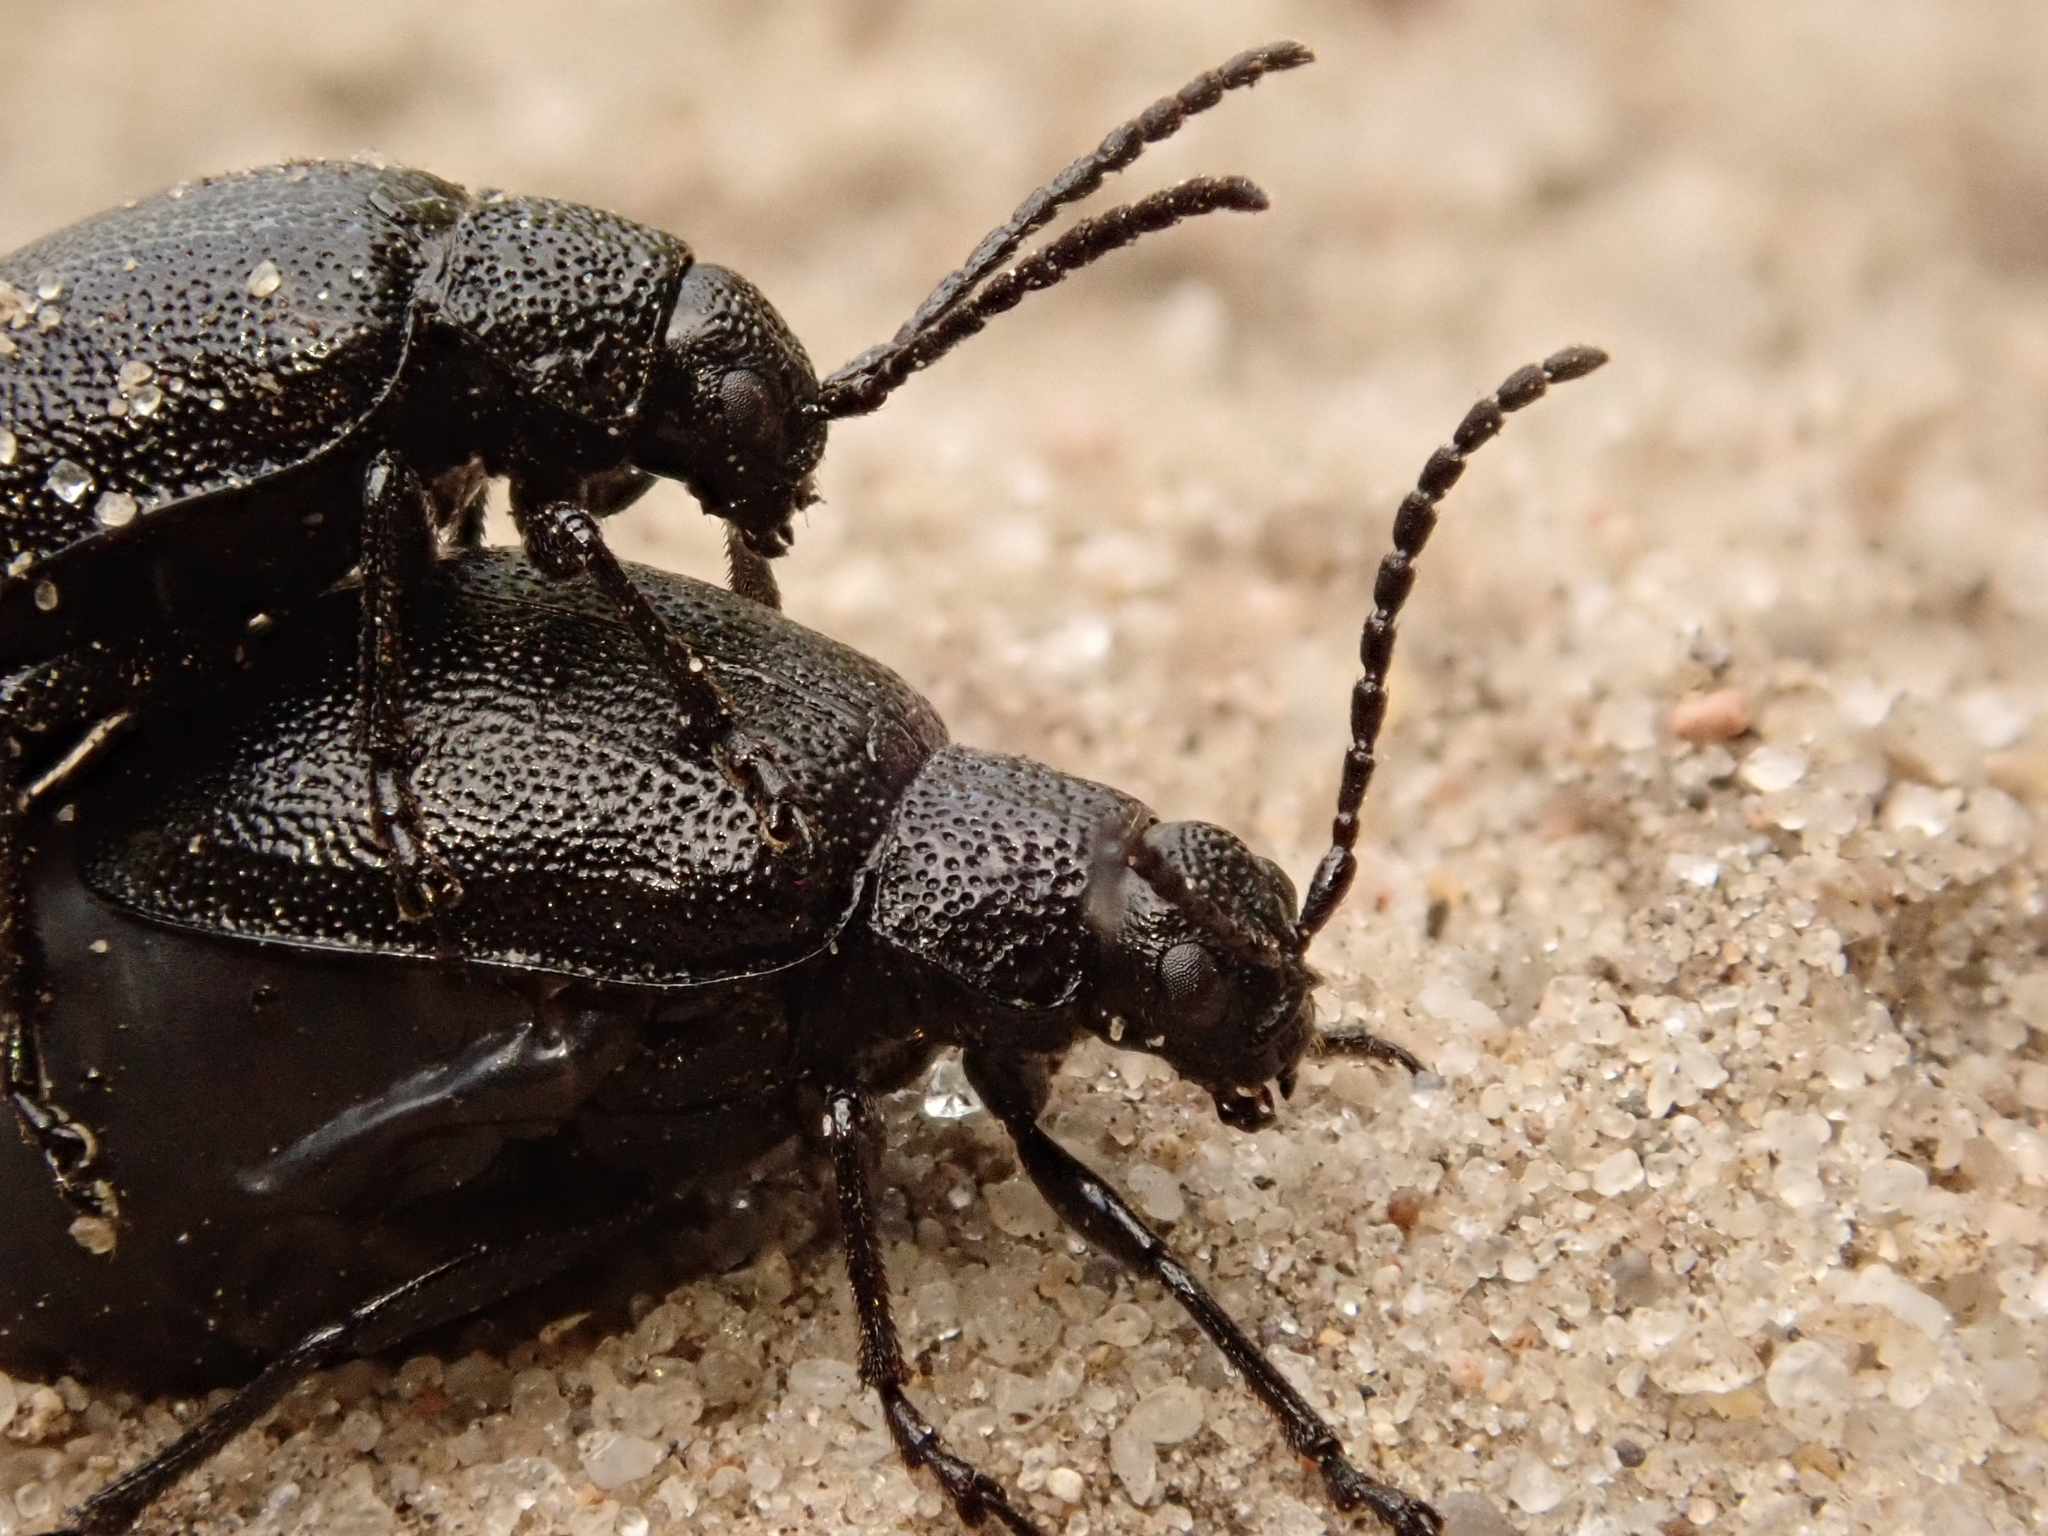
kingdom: Animalia
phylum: Arthropoda
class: Insecta
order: Coleoptera
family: Chrysomelidae
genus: Galeruca
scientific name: Galeruca tanaceti
